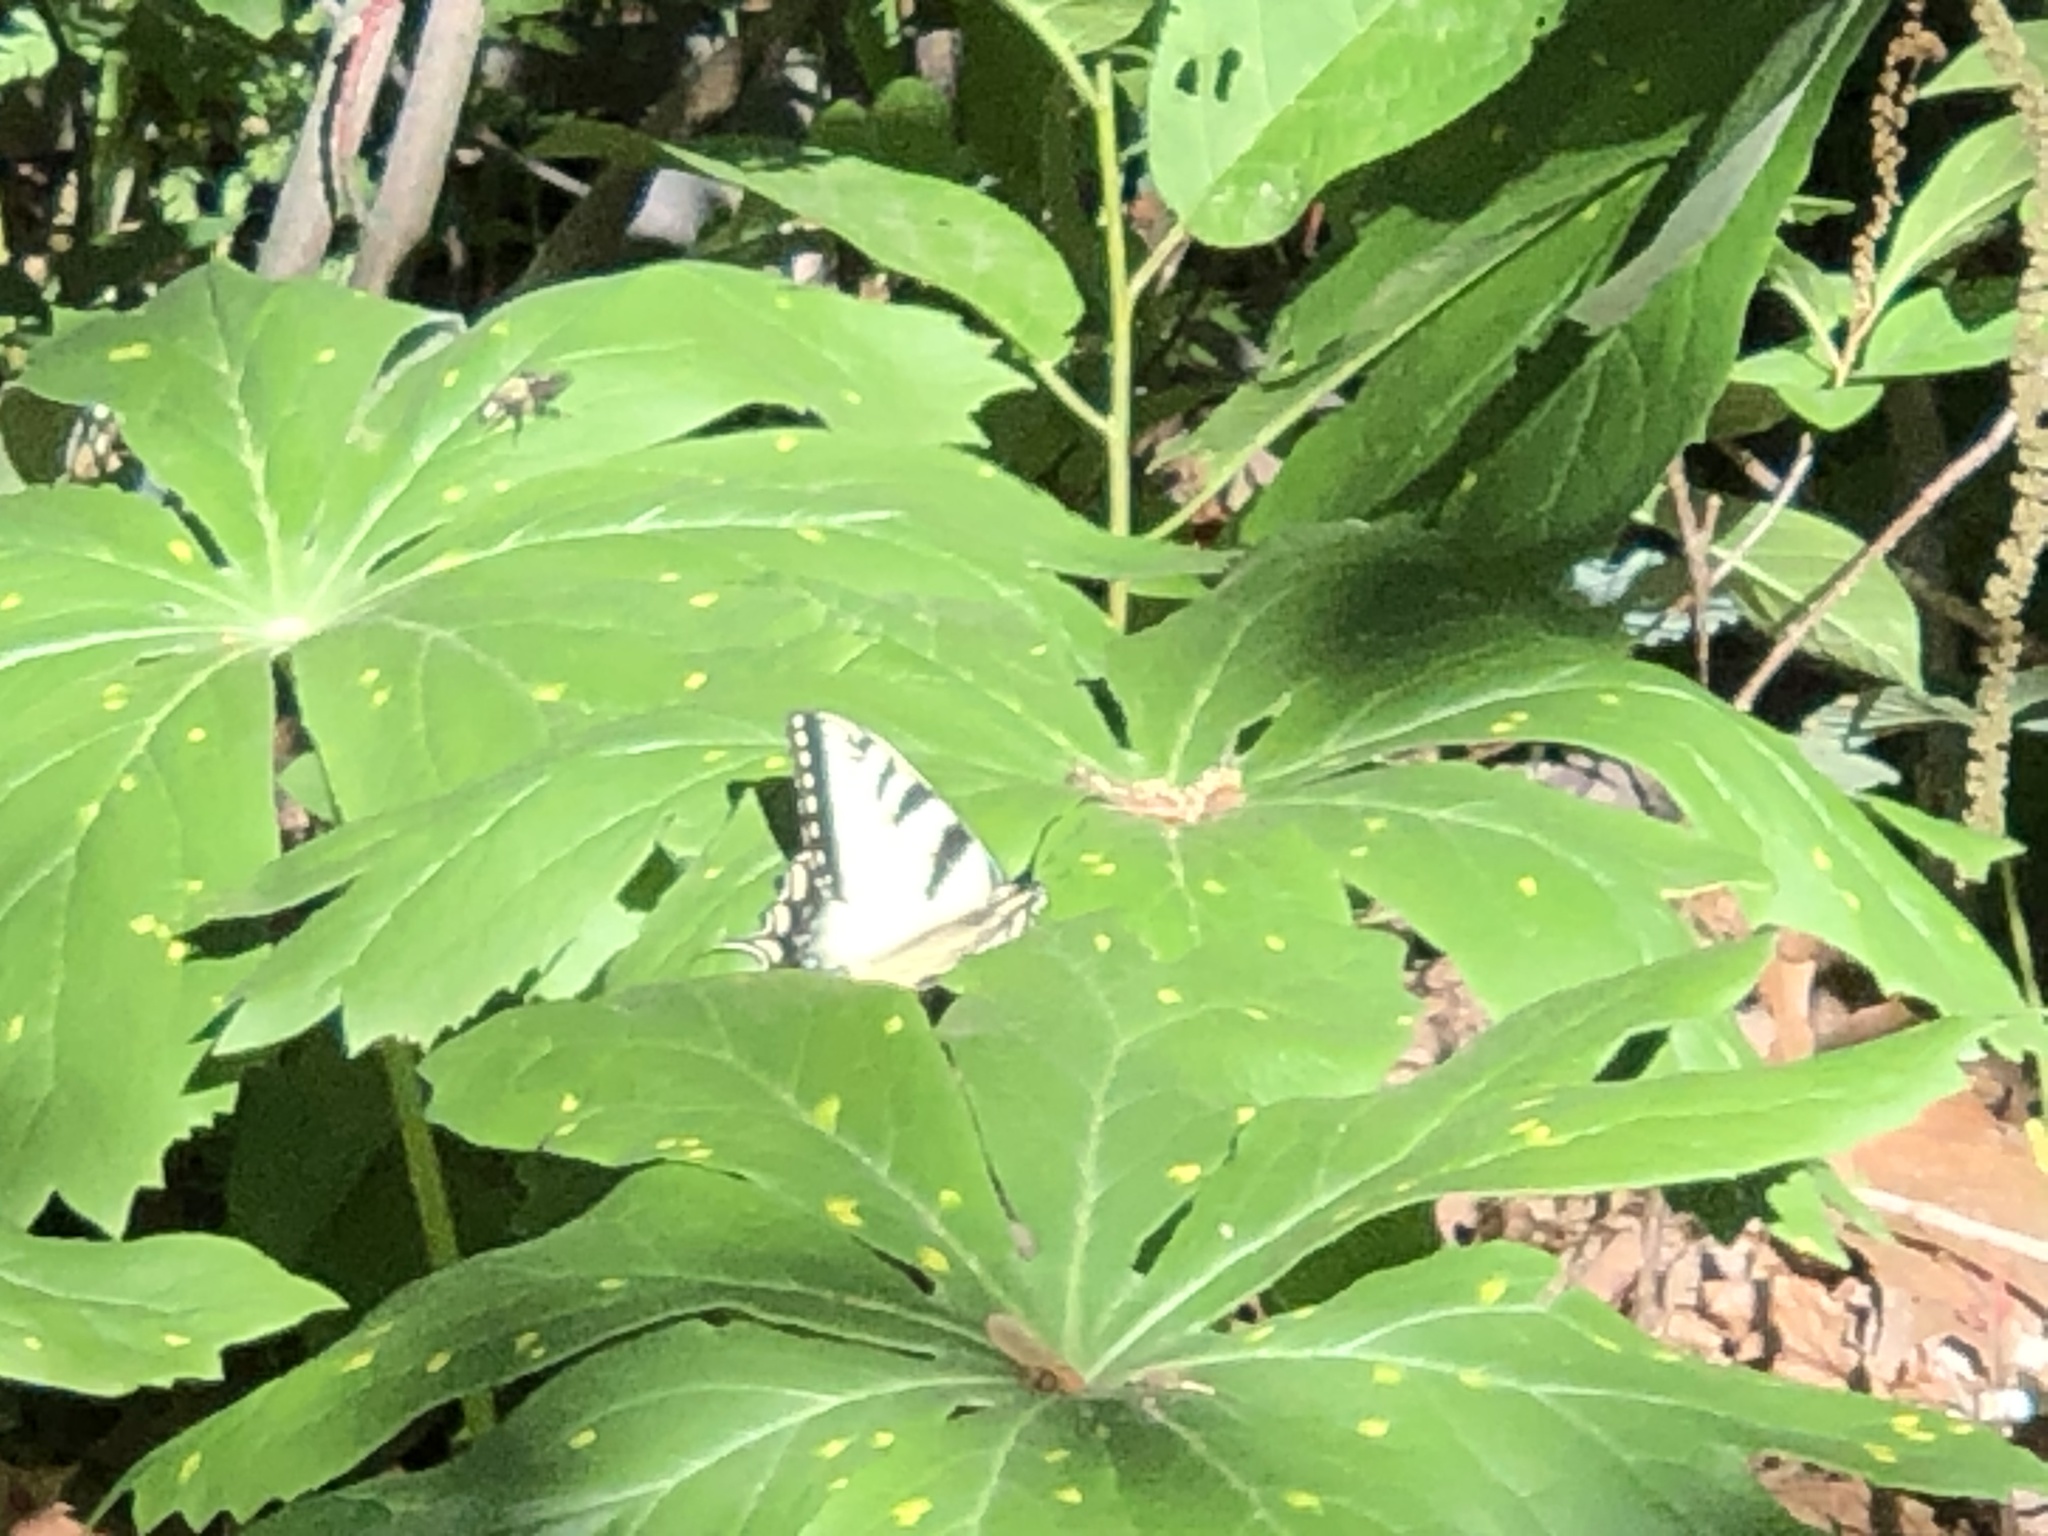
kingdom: Animalia
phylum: Arthropoda
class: Insecta
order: Lepidoptera
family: Papilionidae
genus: Papilio
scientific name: Papilio glaucus
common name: Tiger swallowtail
